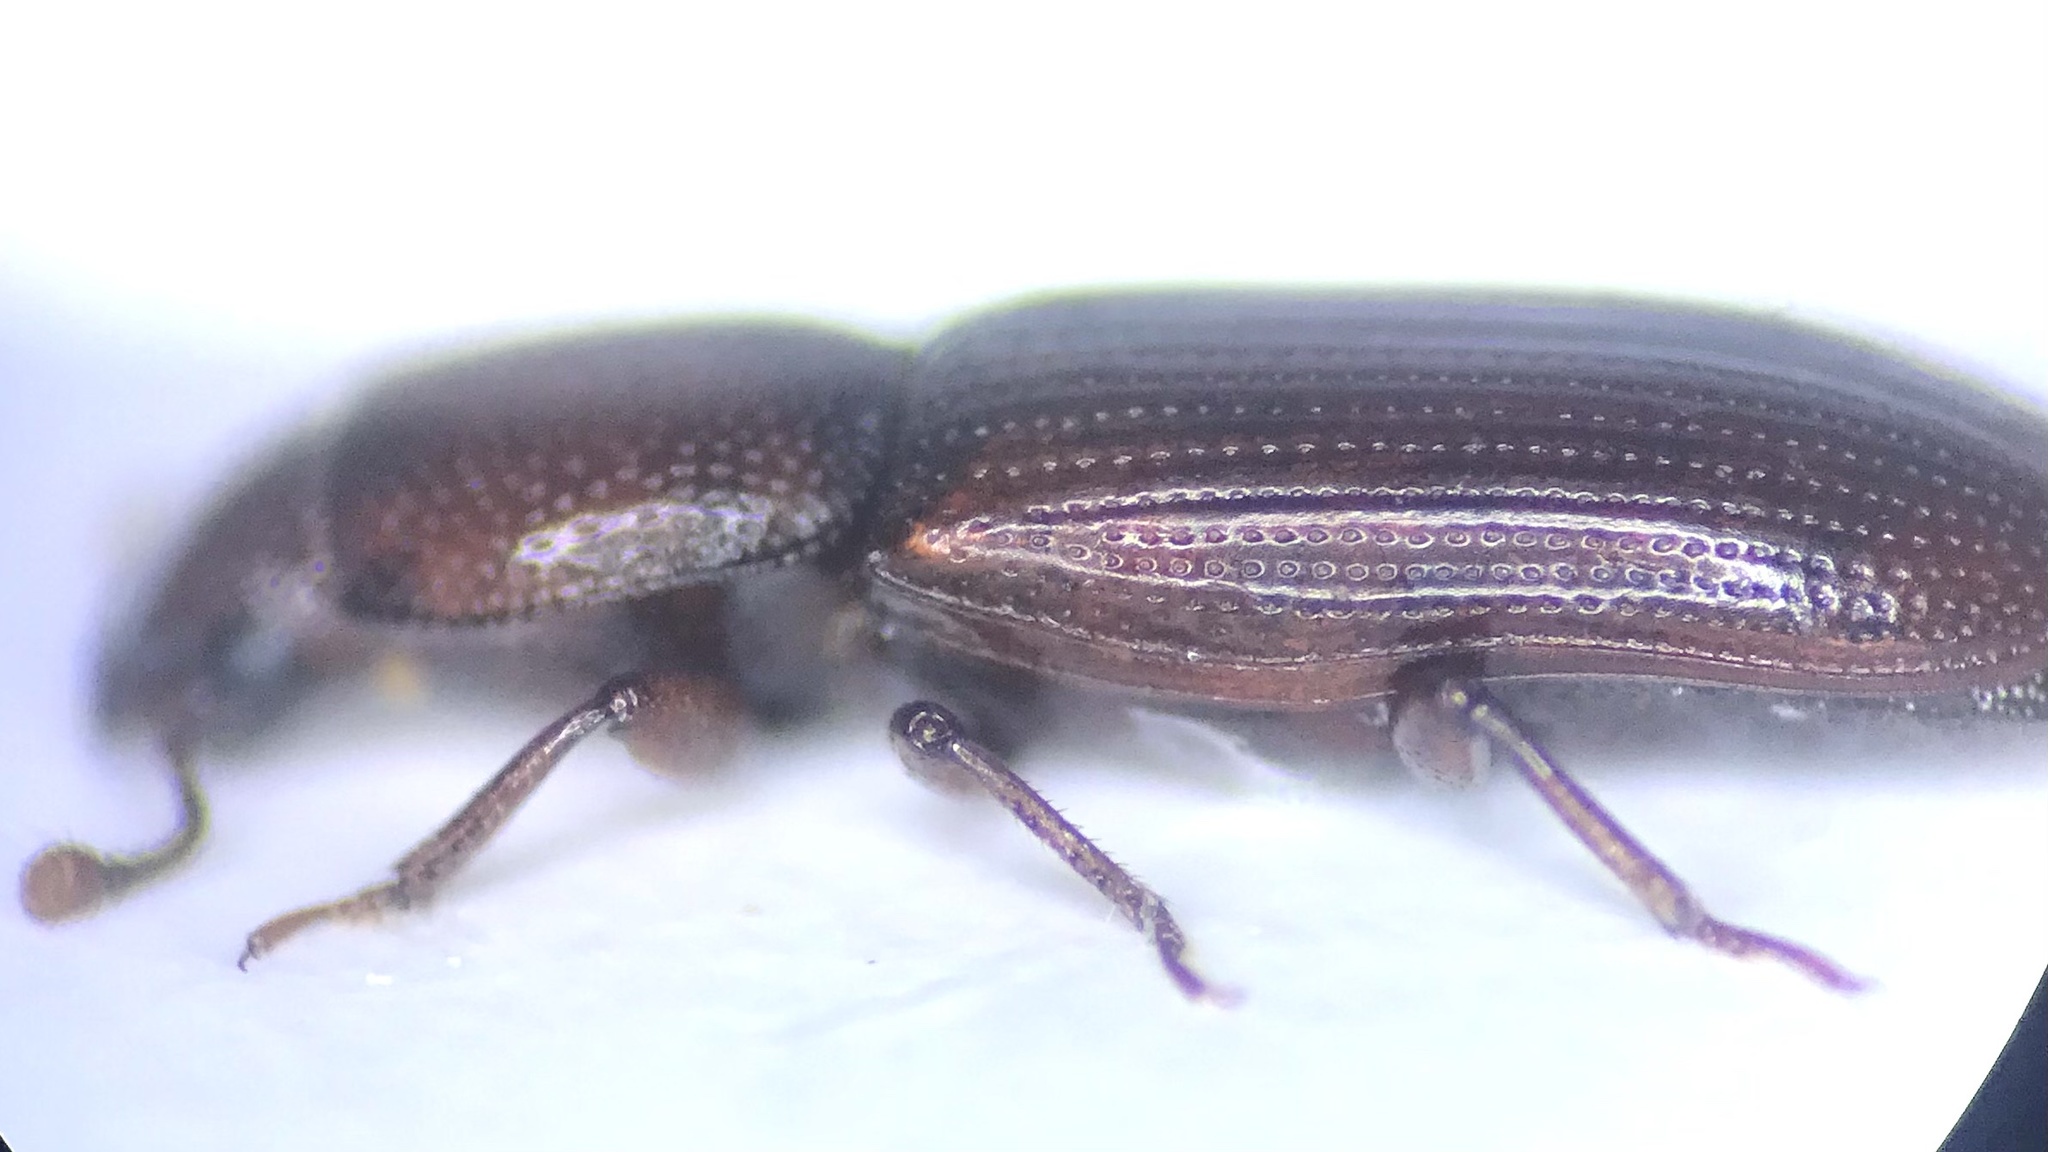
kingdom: Animalia
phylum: Arthropoda
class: Insecta
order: Coleoptera
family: Monotomidae
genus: Rhizophagus
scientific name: Rhizophagus ferrugineus
